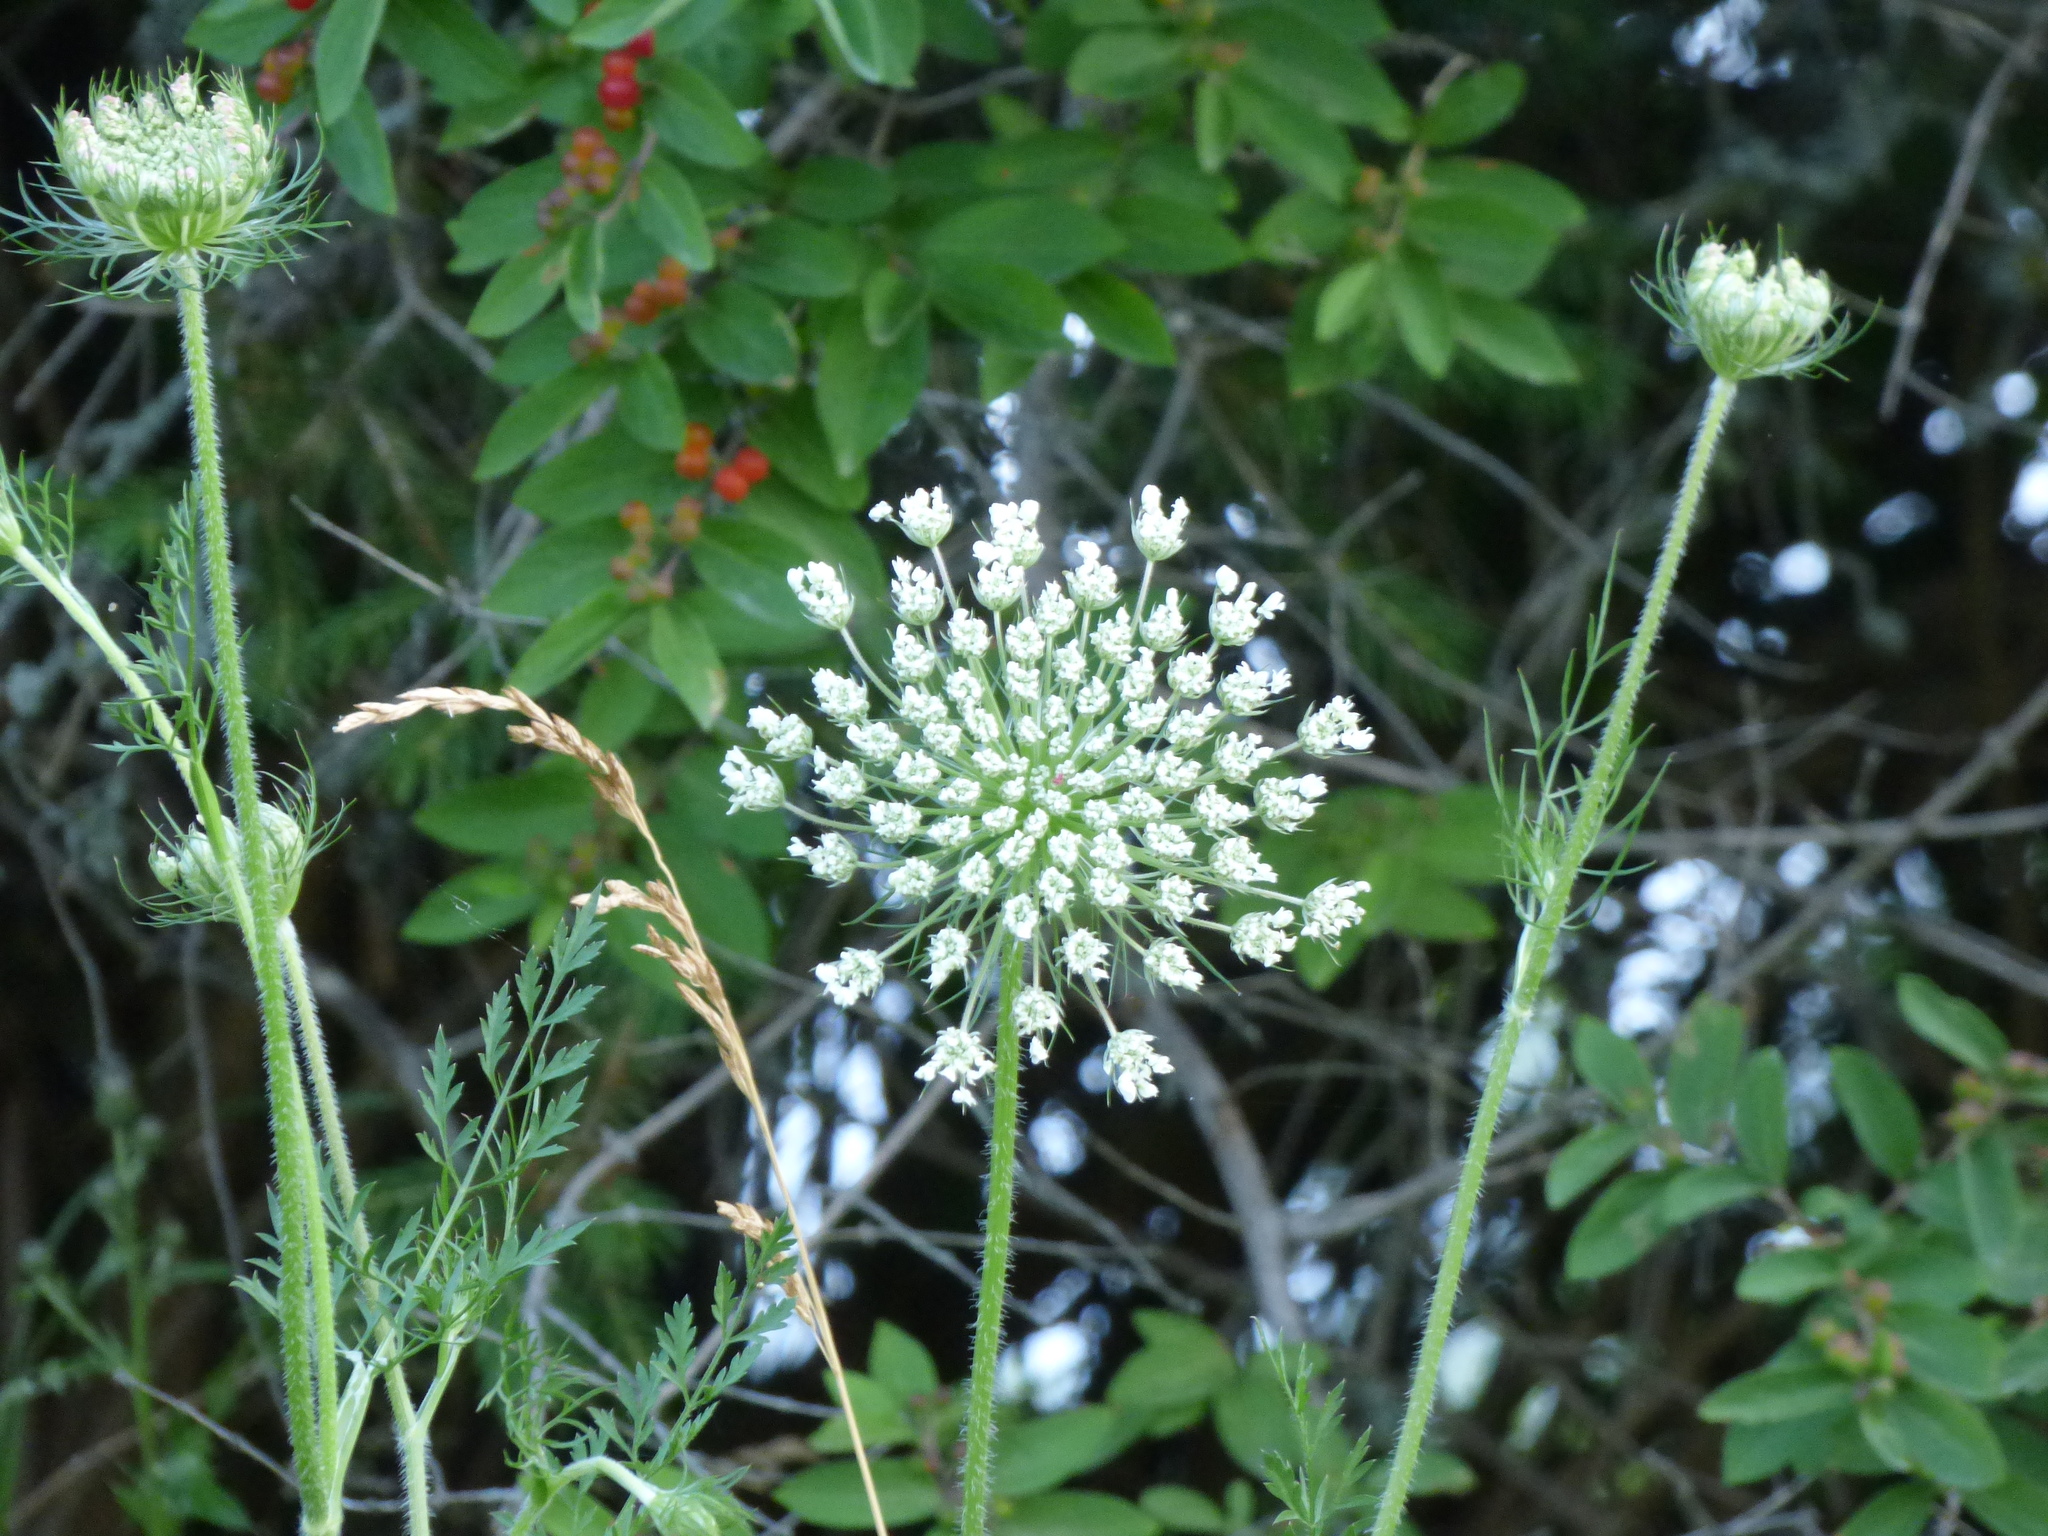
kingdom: Plantae
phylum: Tracheophyta
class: Magnoliopsida
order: Apiales
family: Apiaceae
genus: Daucus
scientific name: Daucus carota
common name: Wild carrot
